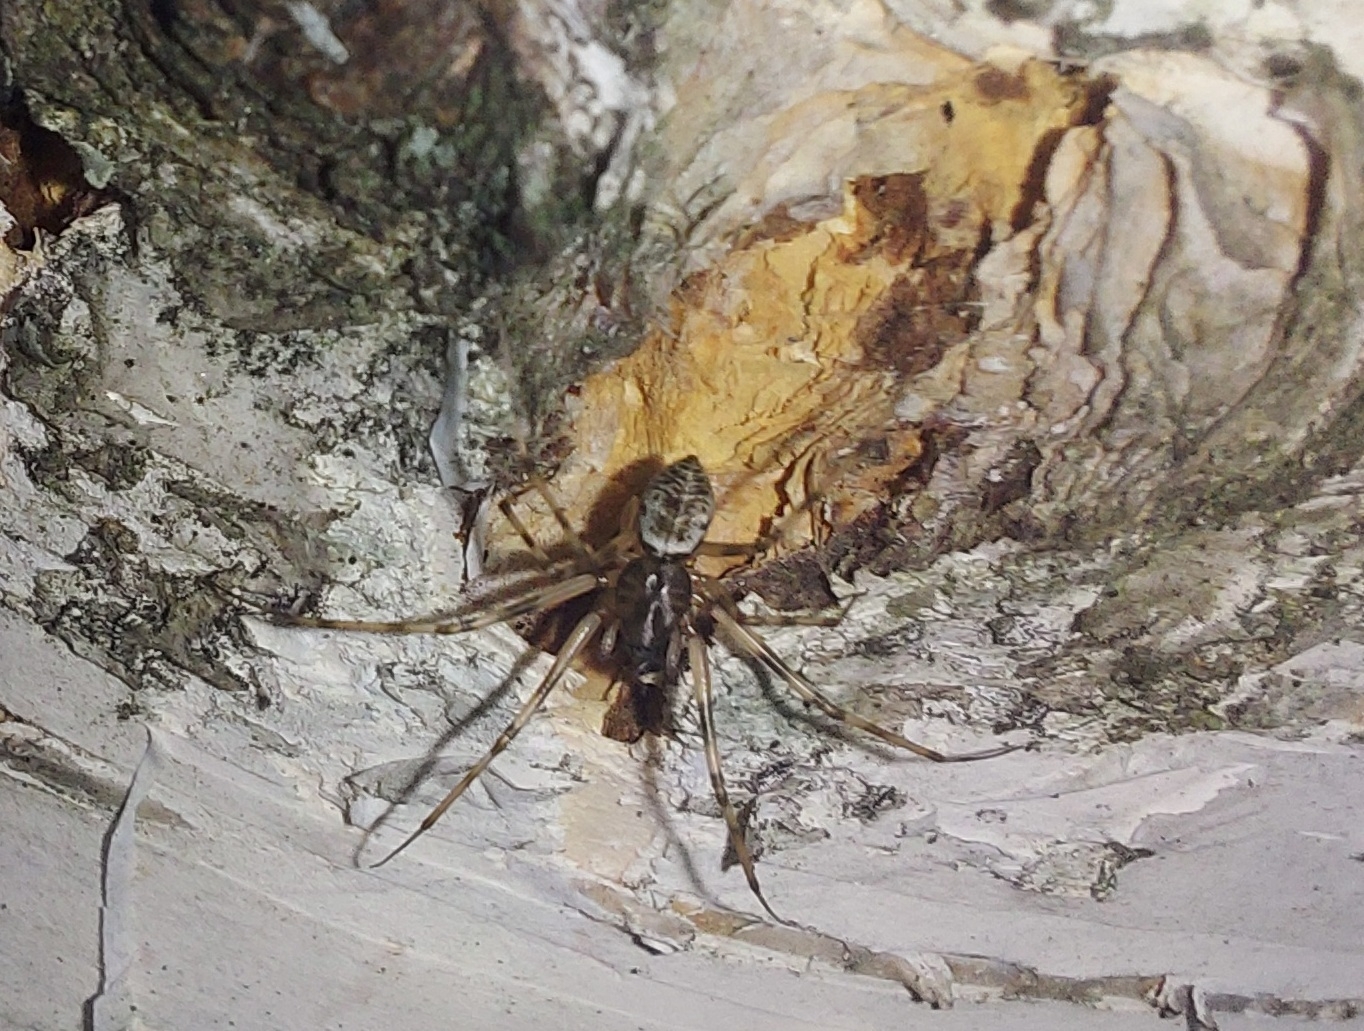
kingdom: Animalia
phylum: Arthropoda
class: Arachnida
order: Araneae
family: Linyphiidae
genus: Drapetisca
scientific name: Drapetisca socialis
